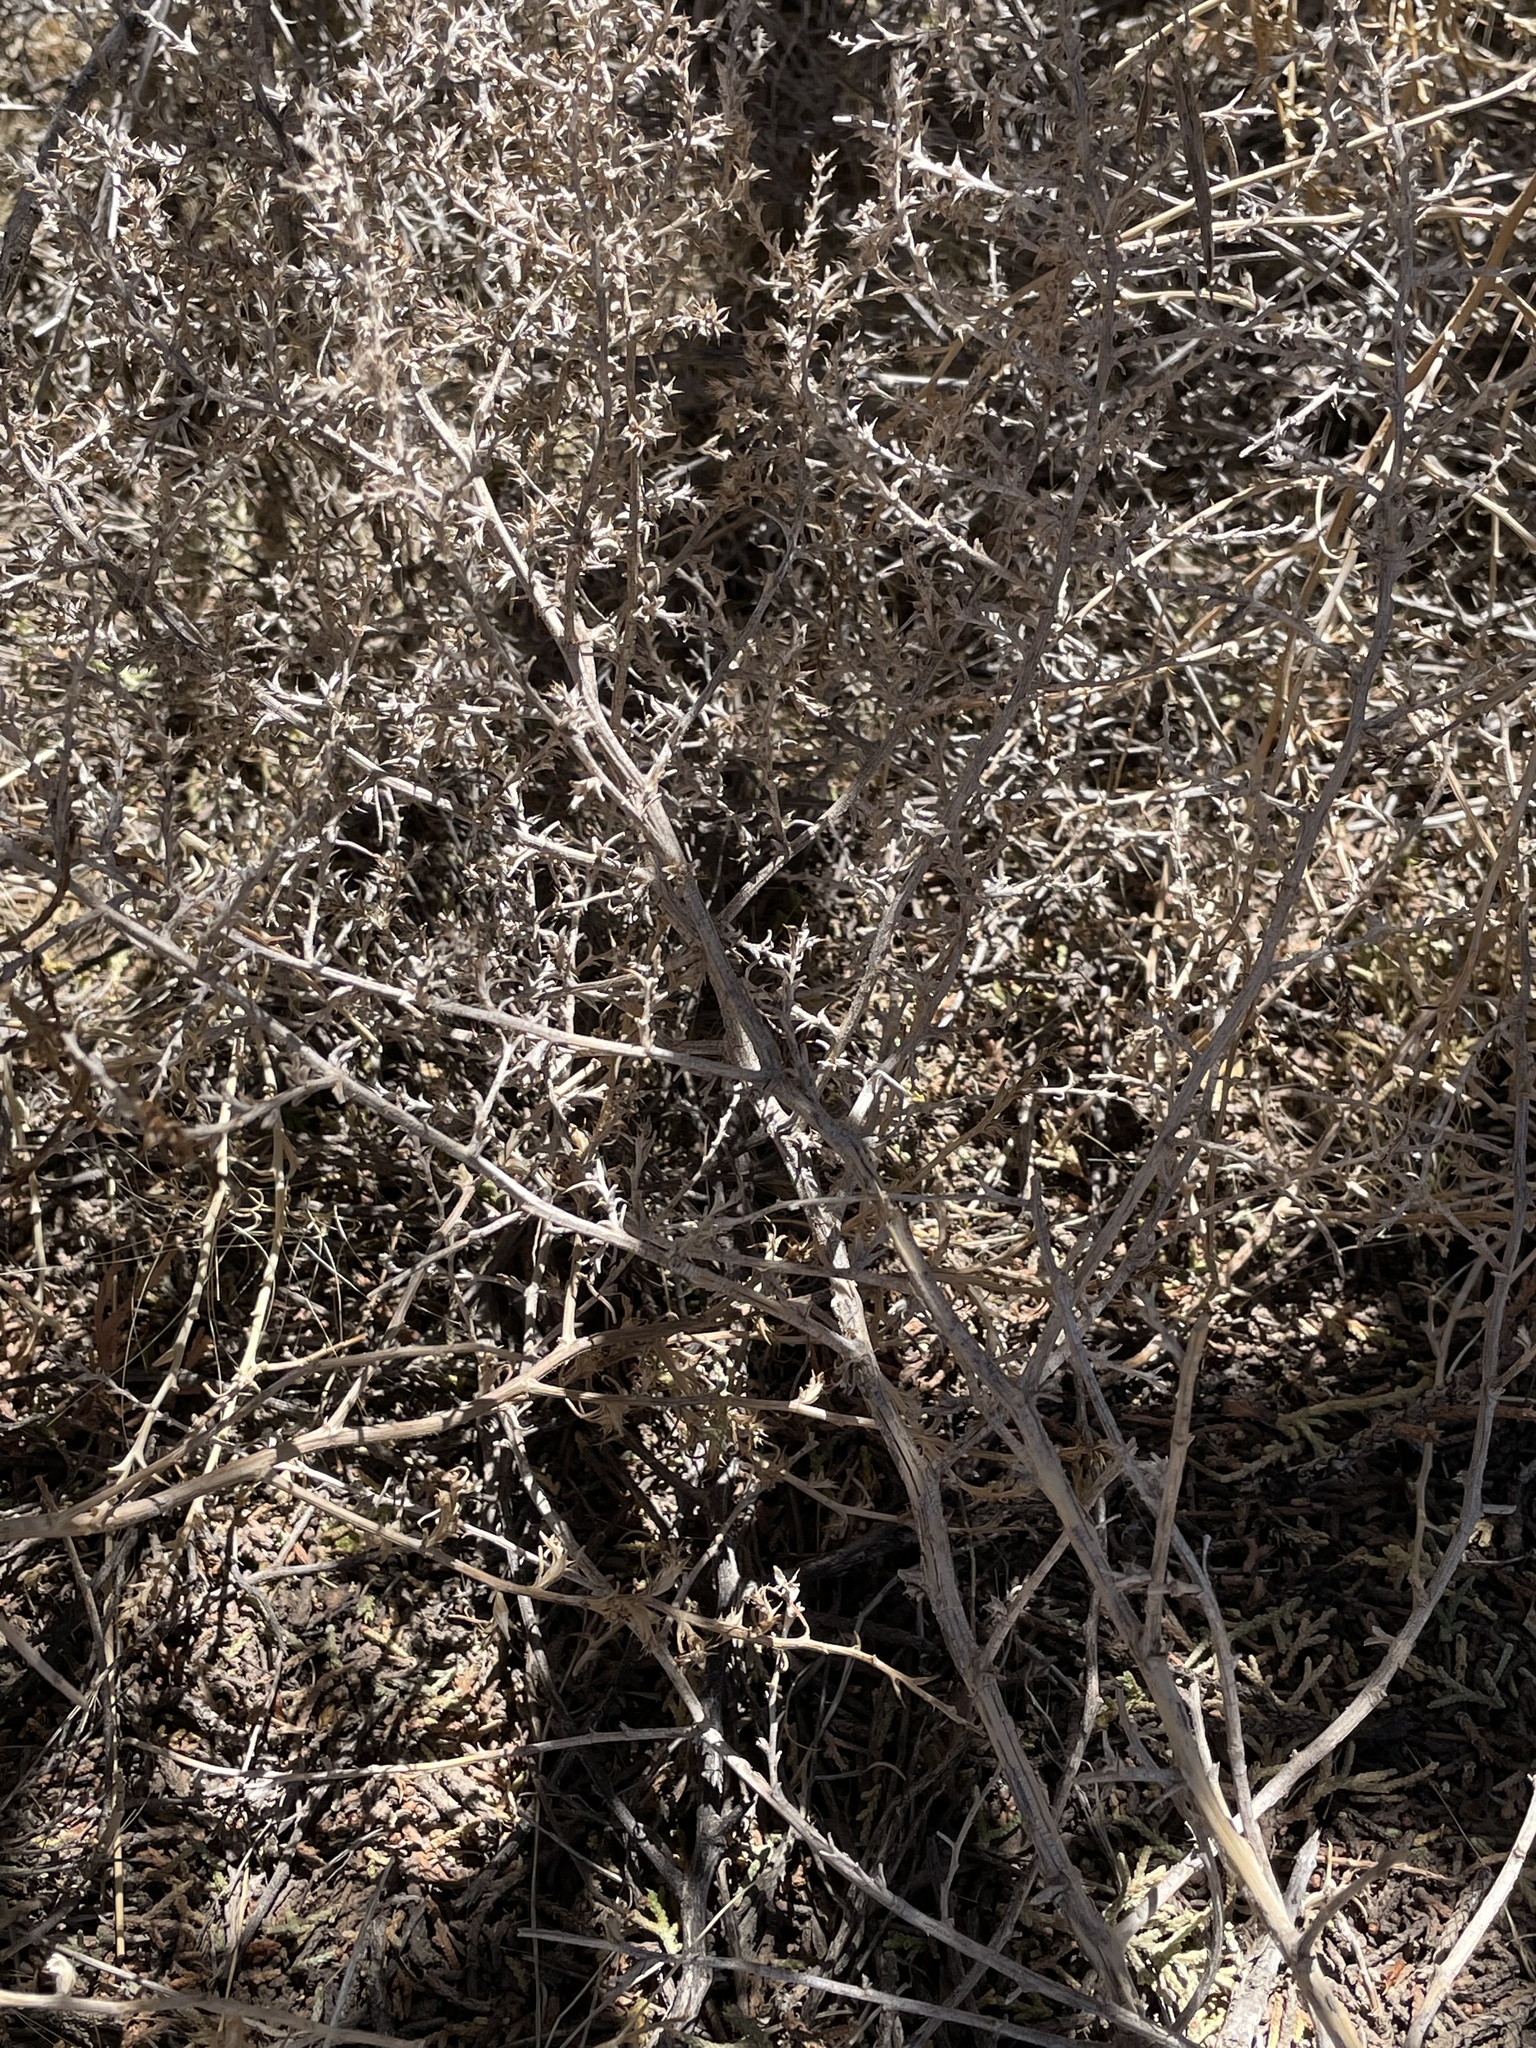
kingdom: Plantae
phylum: Tracheophyta
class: Magnoliopsida
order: Caryophyllales
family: Amaranthaceae
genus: Salsola
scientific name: Salsola tragus
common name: Prickly russian thistle
